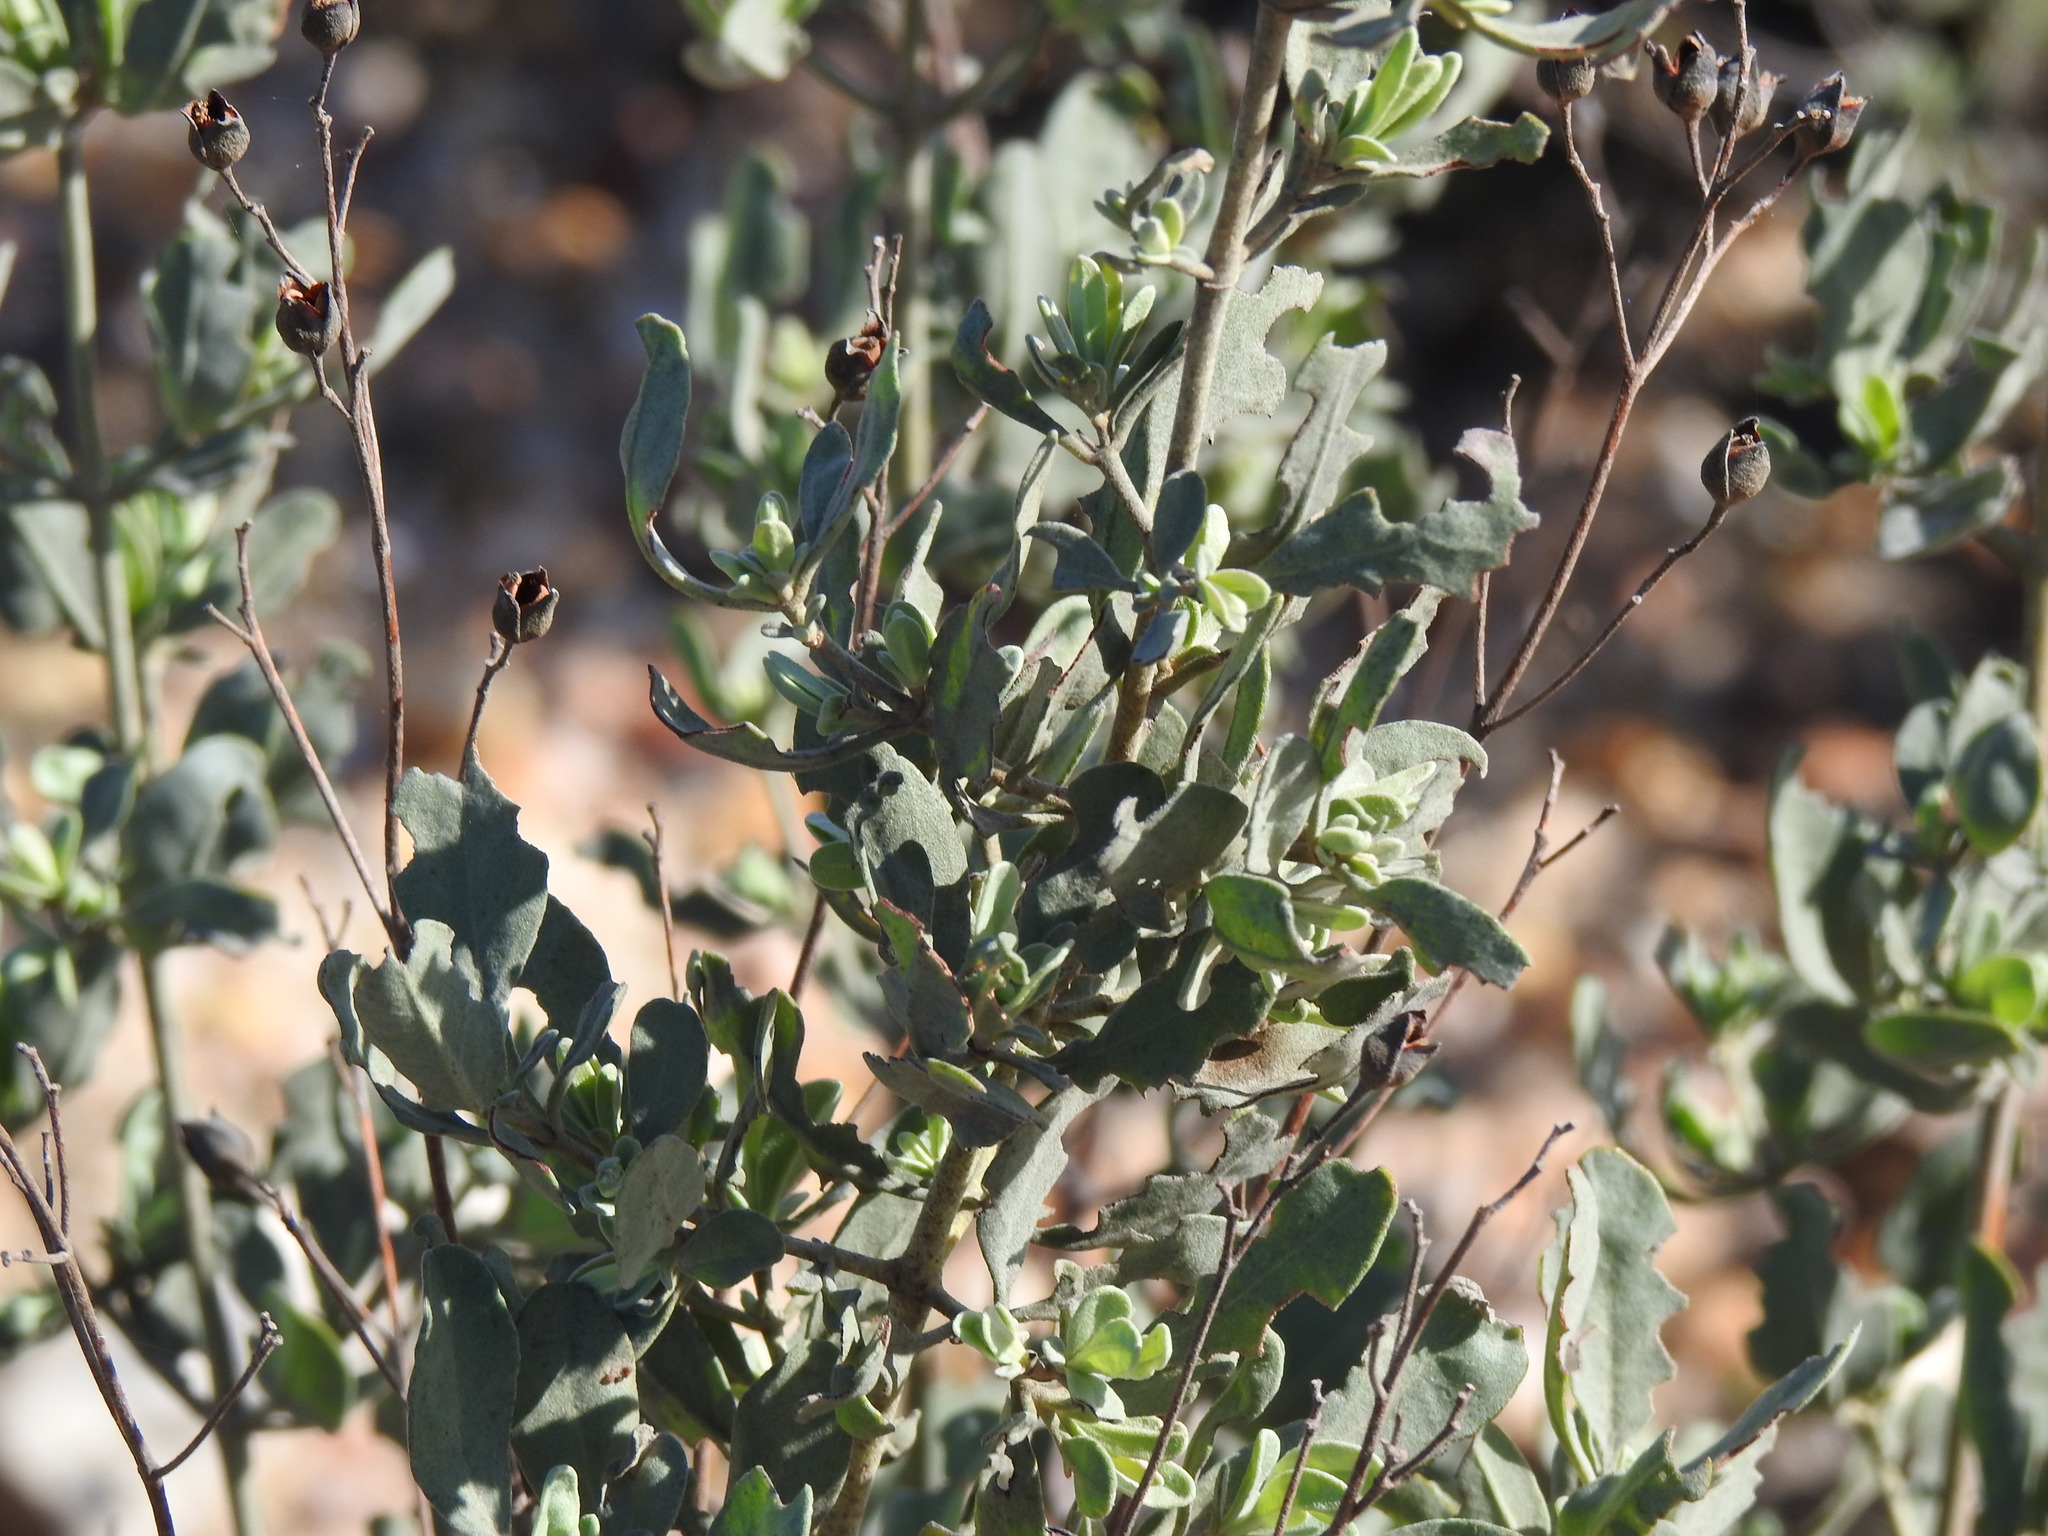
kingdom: Plantae
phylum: Tracheophyta
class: Magnoliopsida
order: Malvales
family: Cistaceae
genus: Halimium
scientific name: Halimium halimifolium
